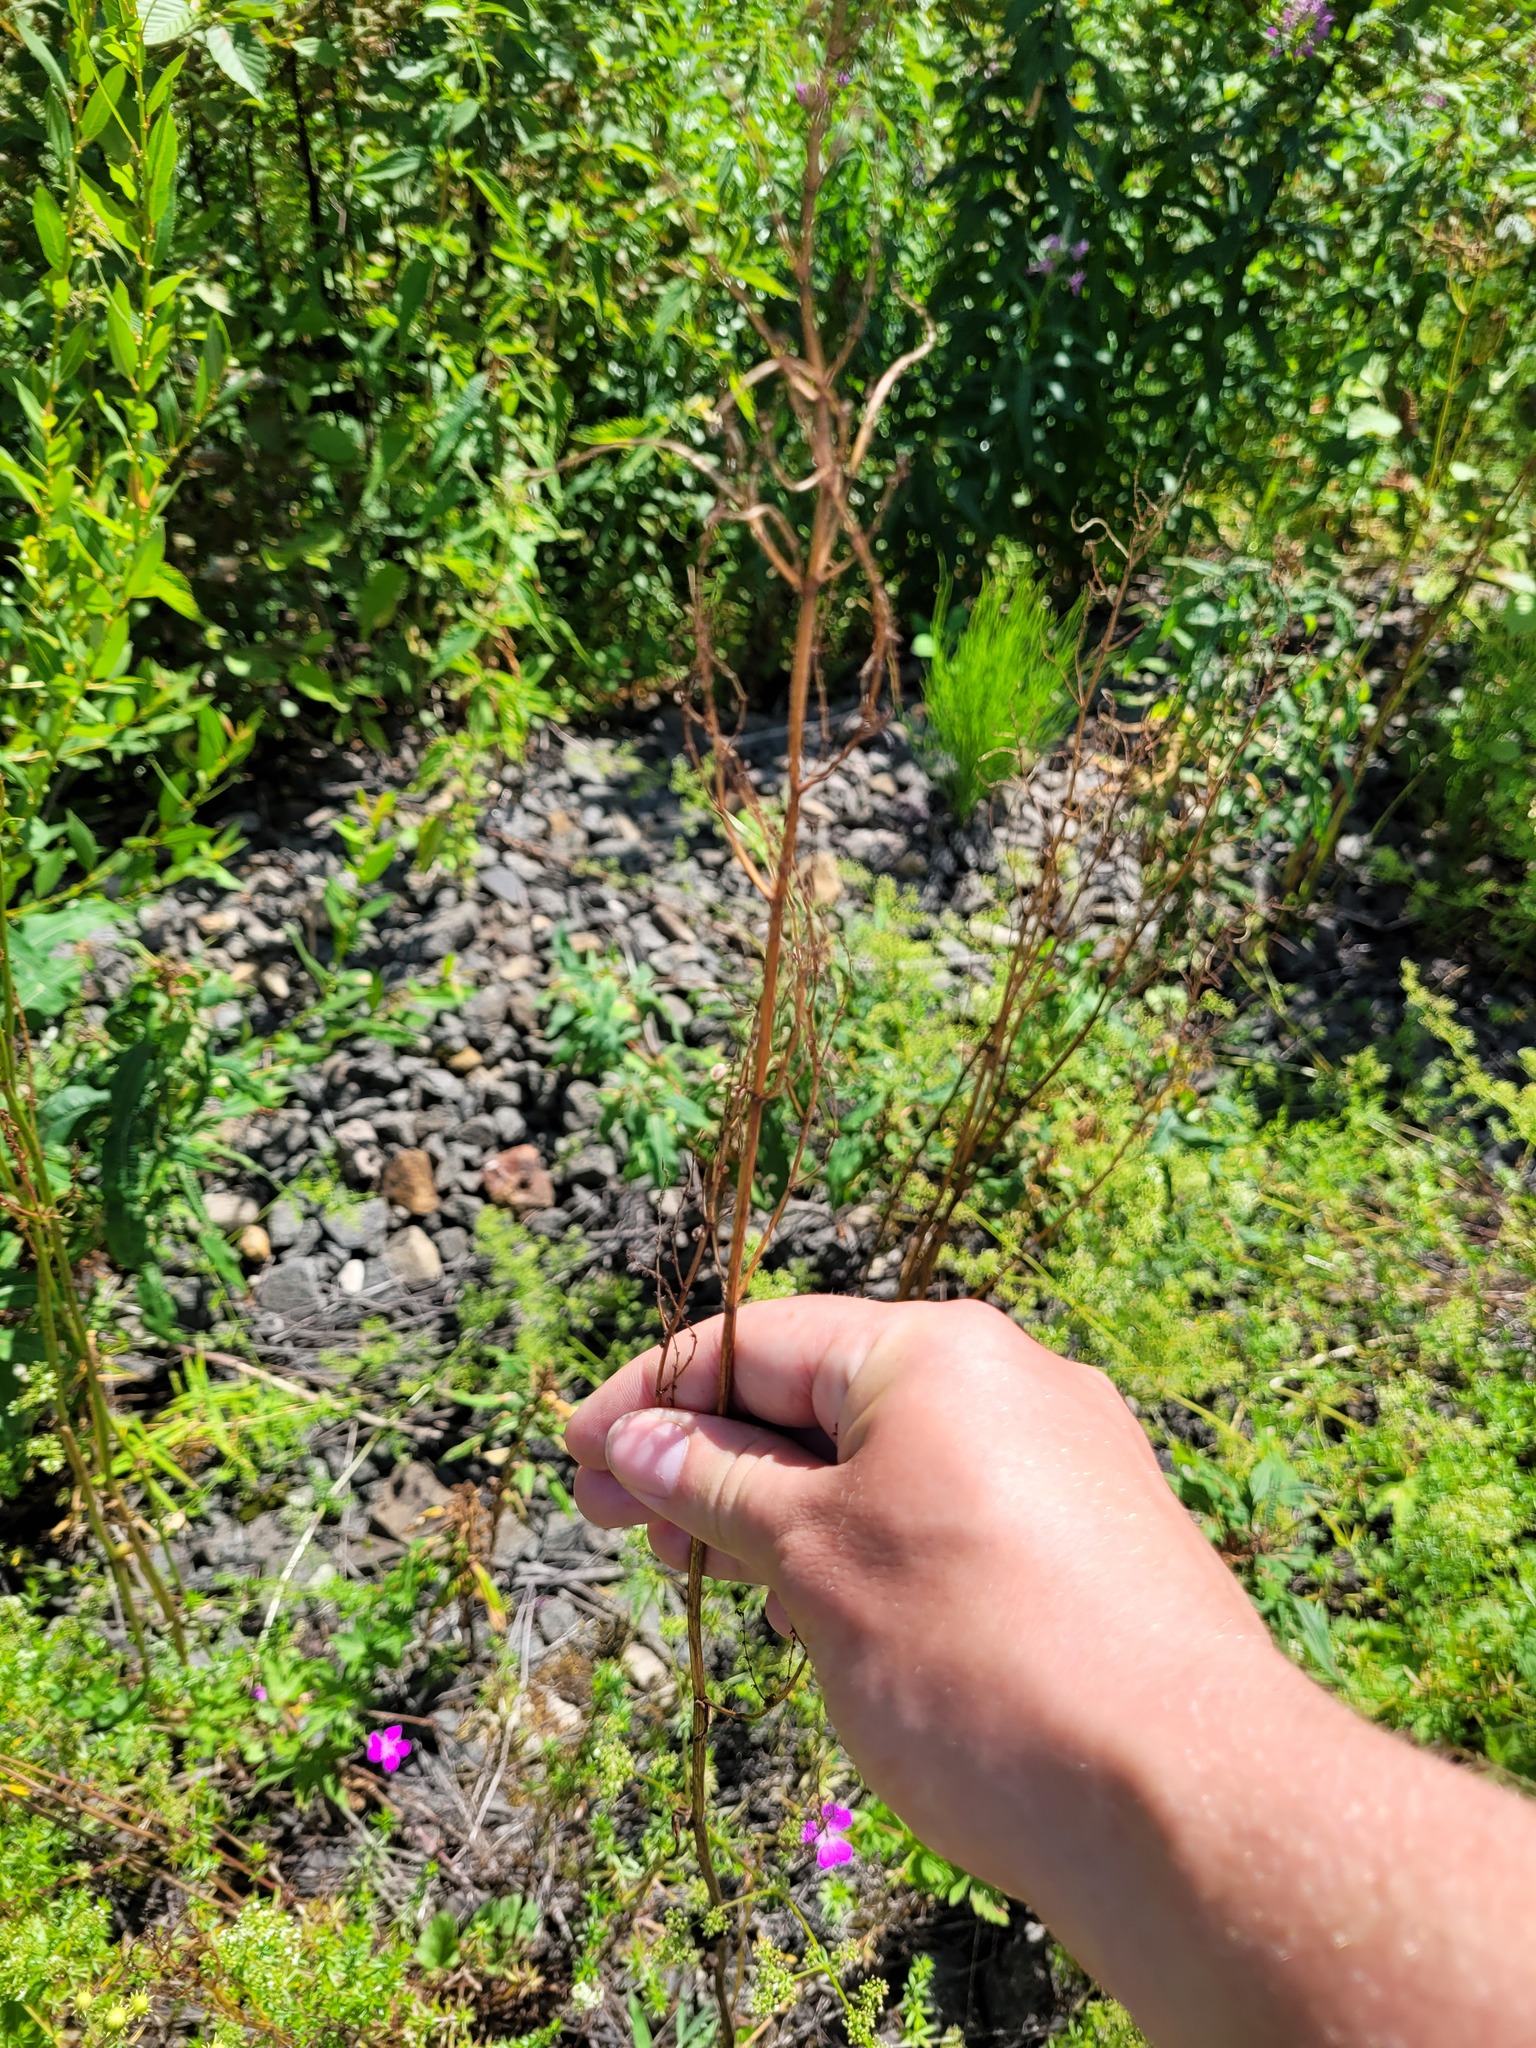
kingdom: Plantae
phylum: Tracheophyta
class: Magnoliopsida
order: Caryophyllales
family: Polygonaceae
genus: Rumex
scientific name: Rumex acetosa
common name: Garden sorrel
